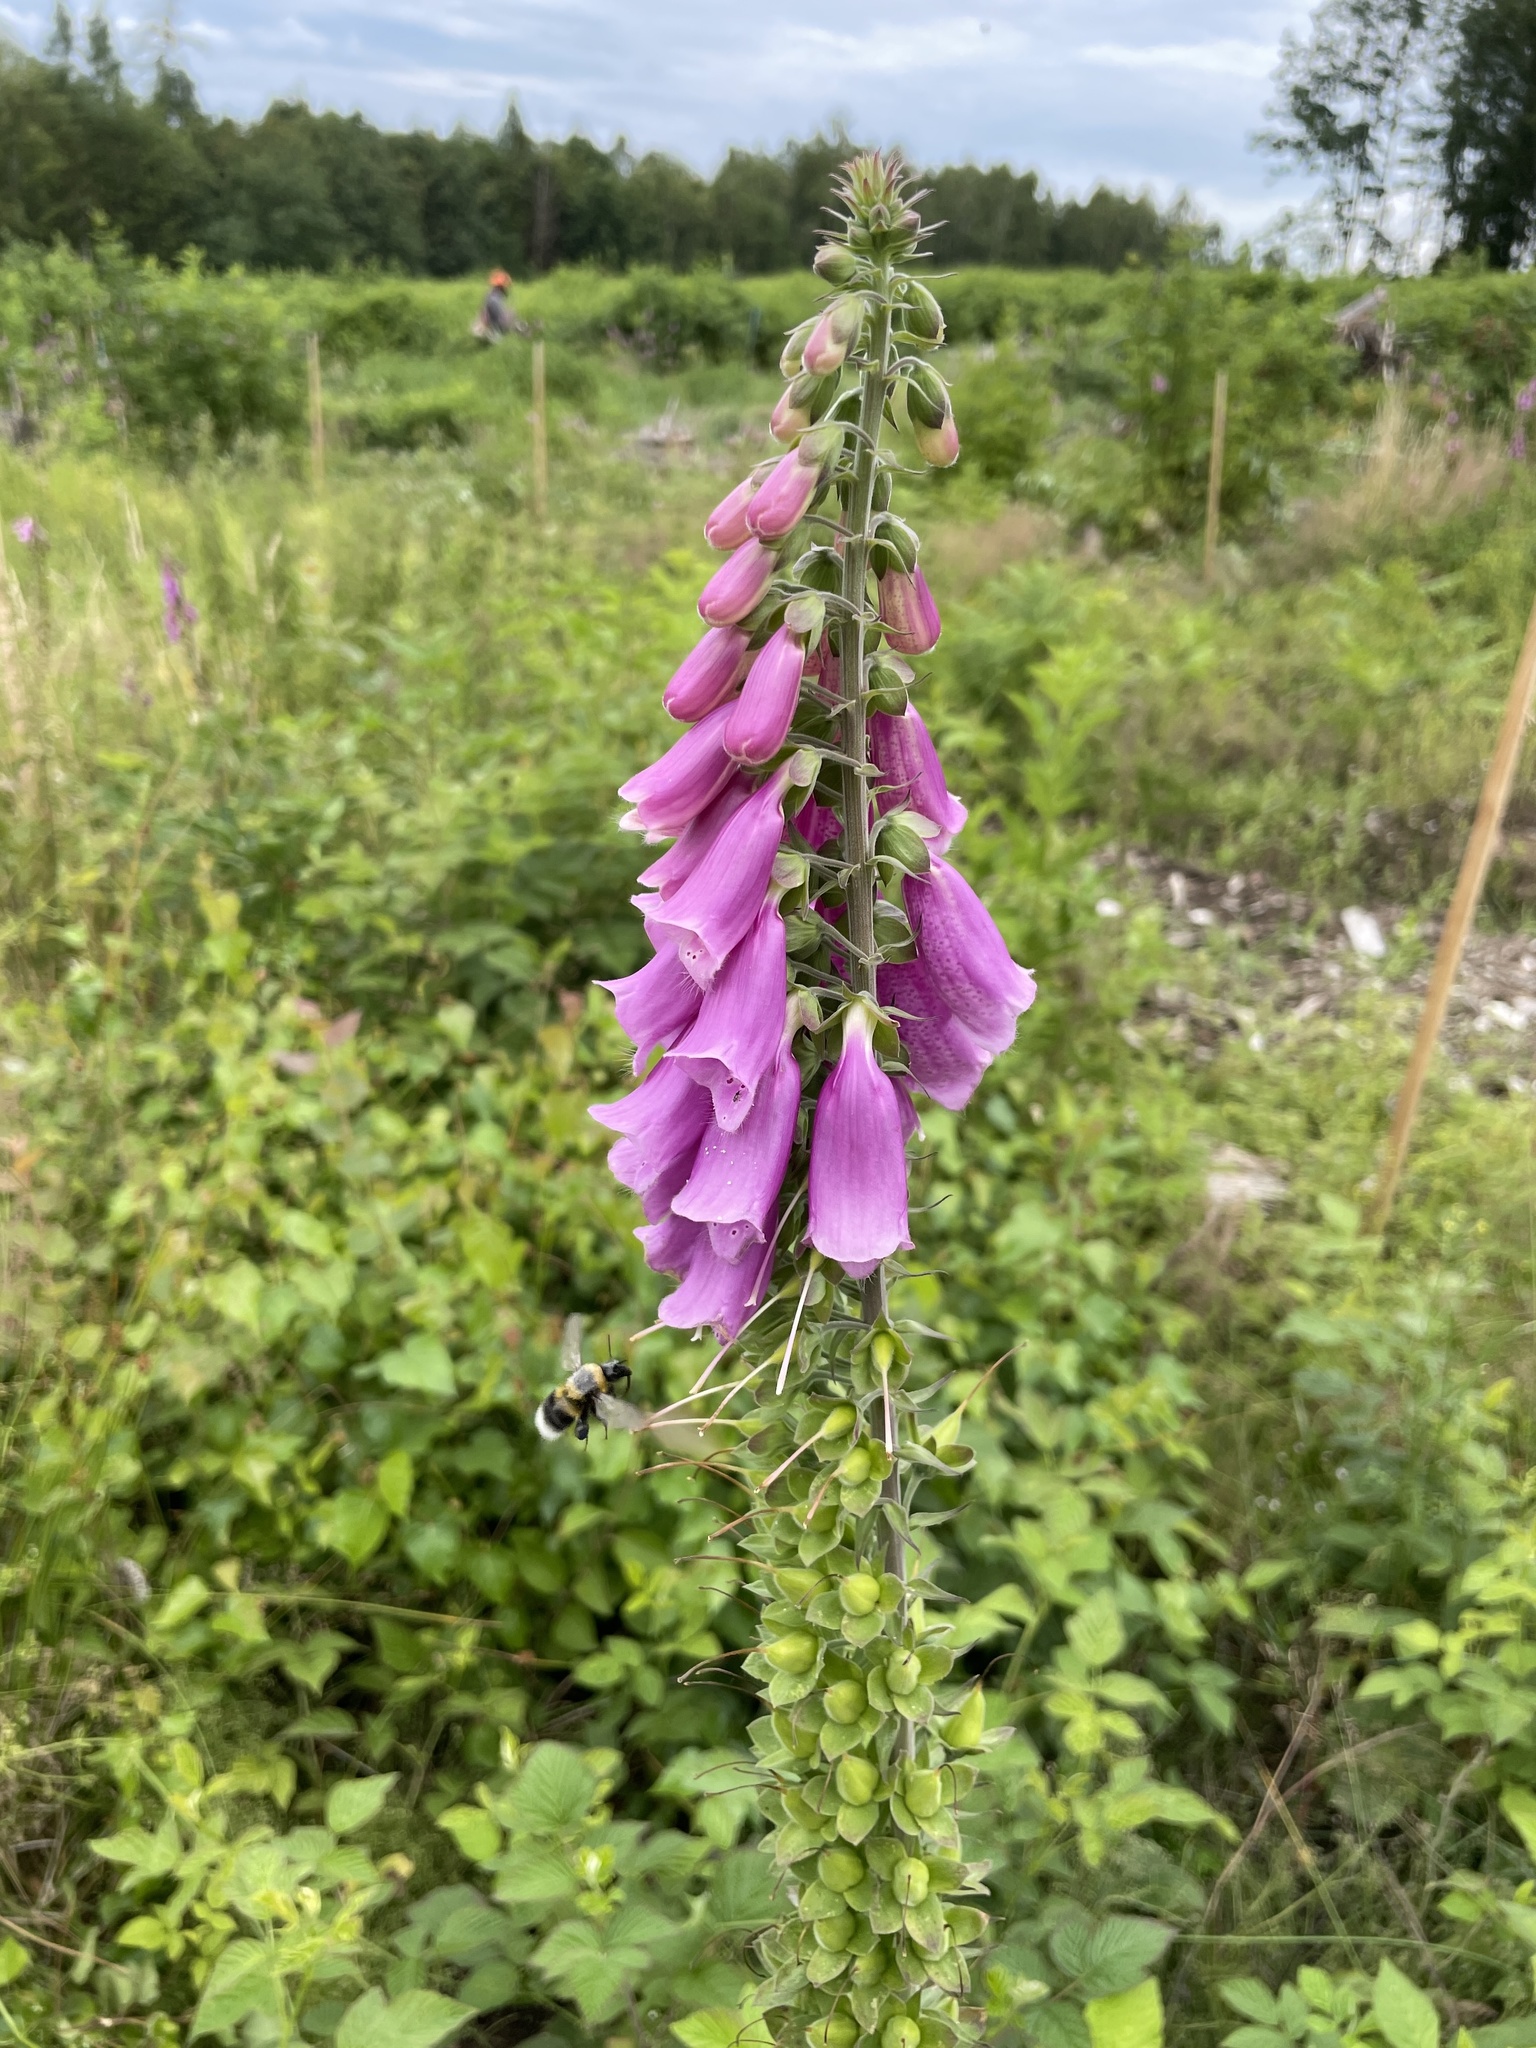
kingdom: Plantae
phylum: Tracheophyta
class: Magnoliopsida
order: Lamiales
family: Plantaginaceae
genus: Digitalis
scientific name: Digitalis purpurea
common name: Foxglove
